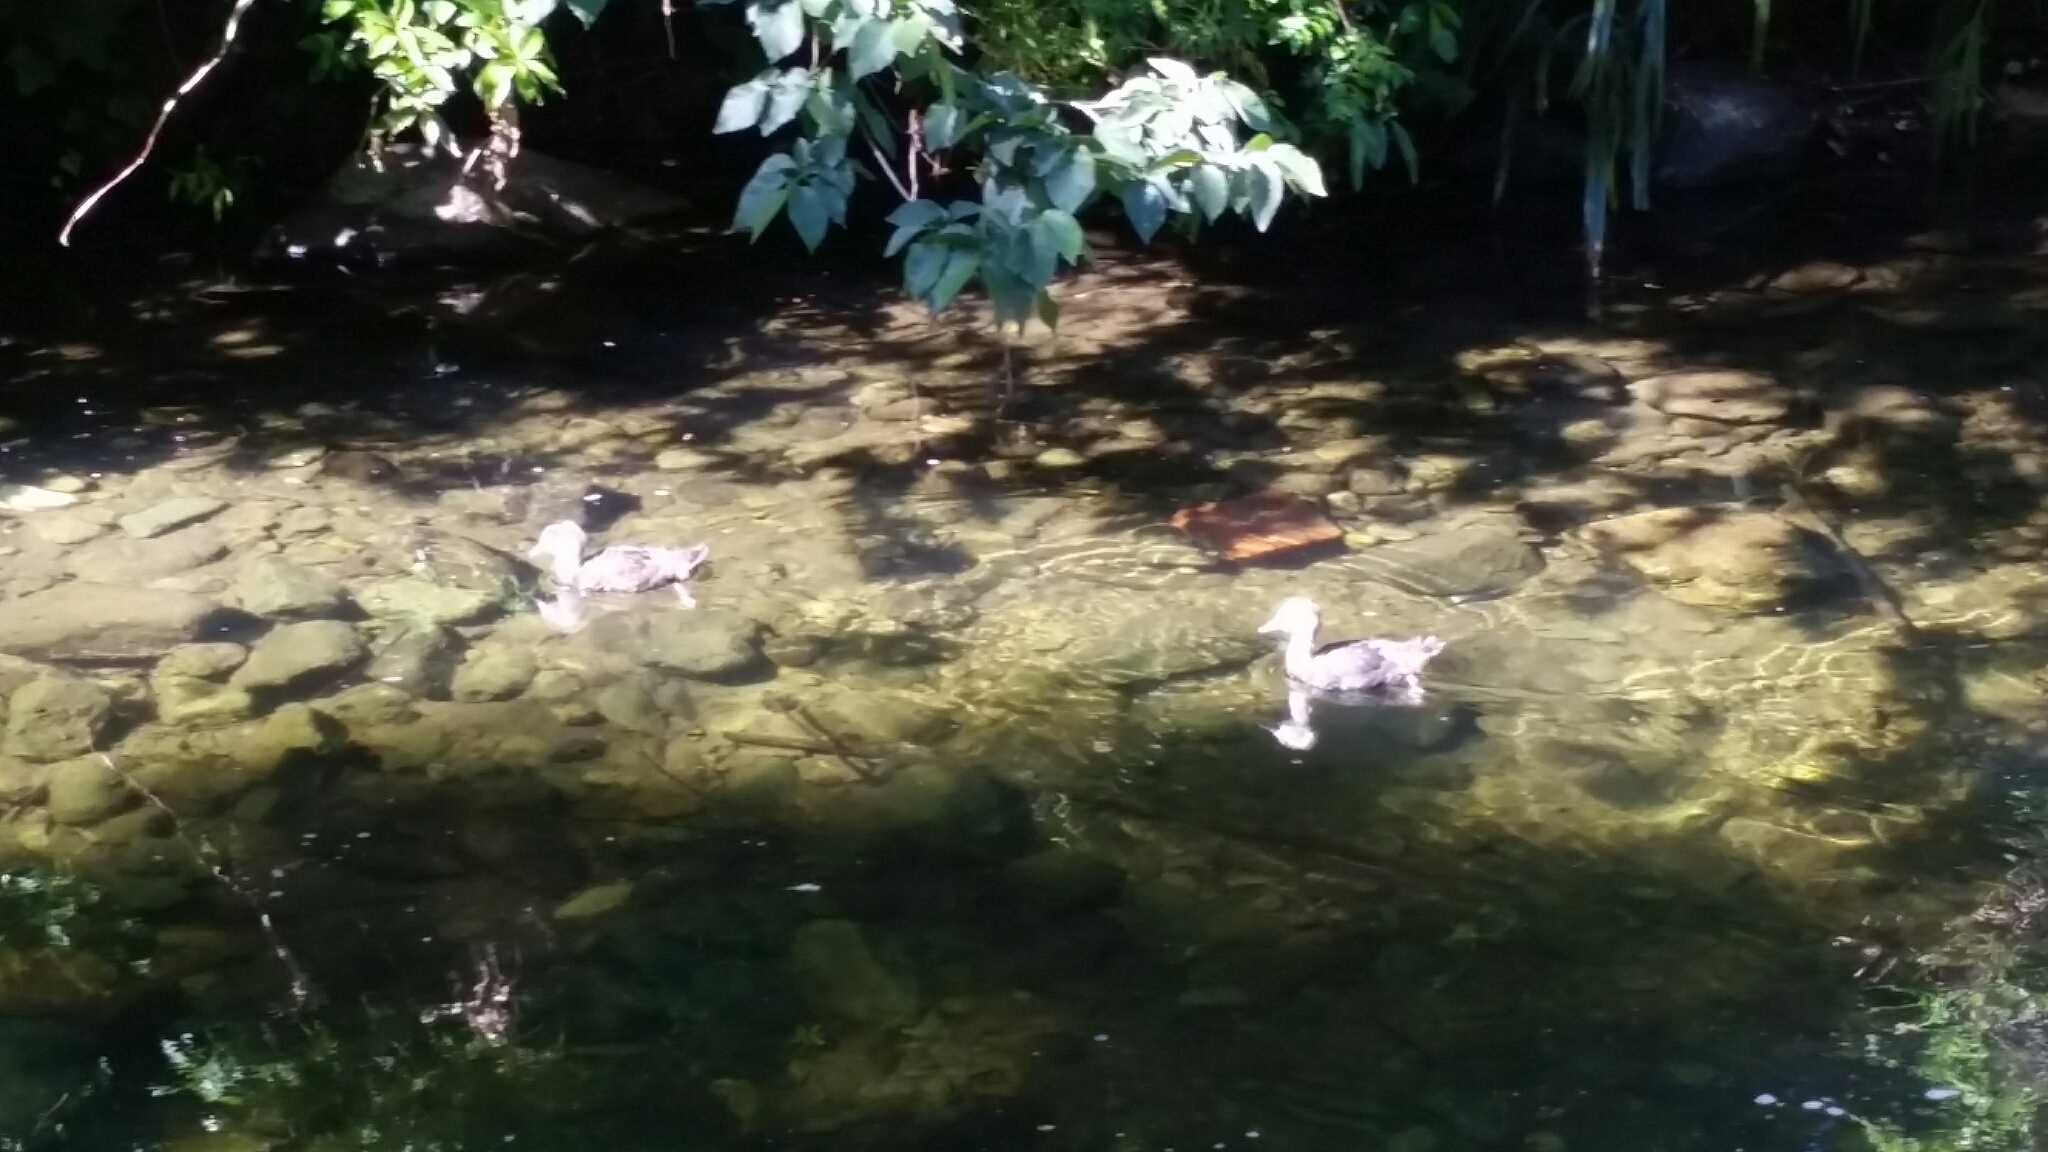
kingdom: Animalia
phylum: Chordata
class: Aves
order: Anseriformes
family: Anatidae
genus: Tadorna
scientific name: Tadorna variegata
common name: Paradise shelduck
